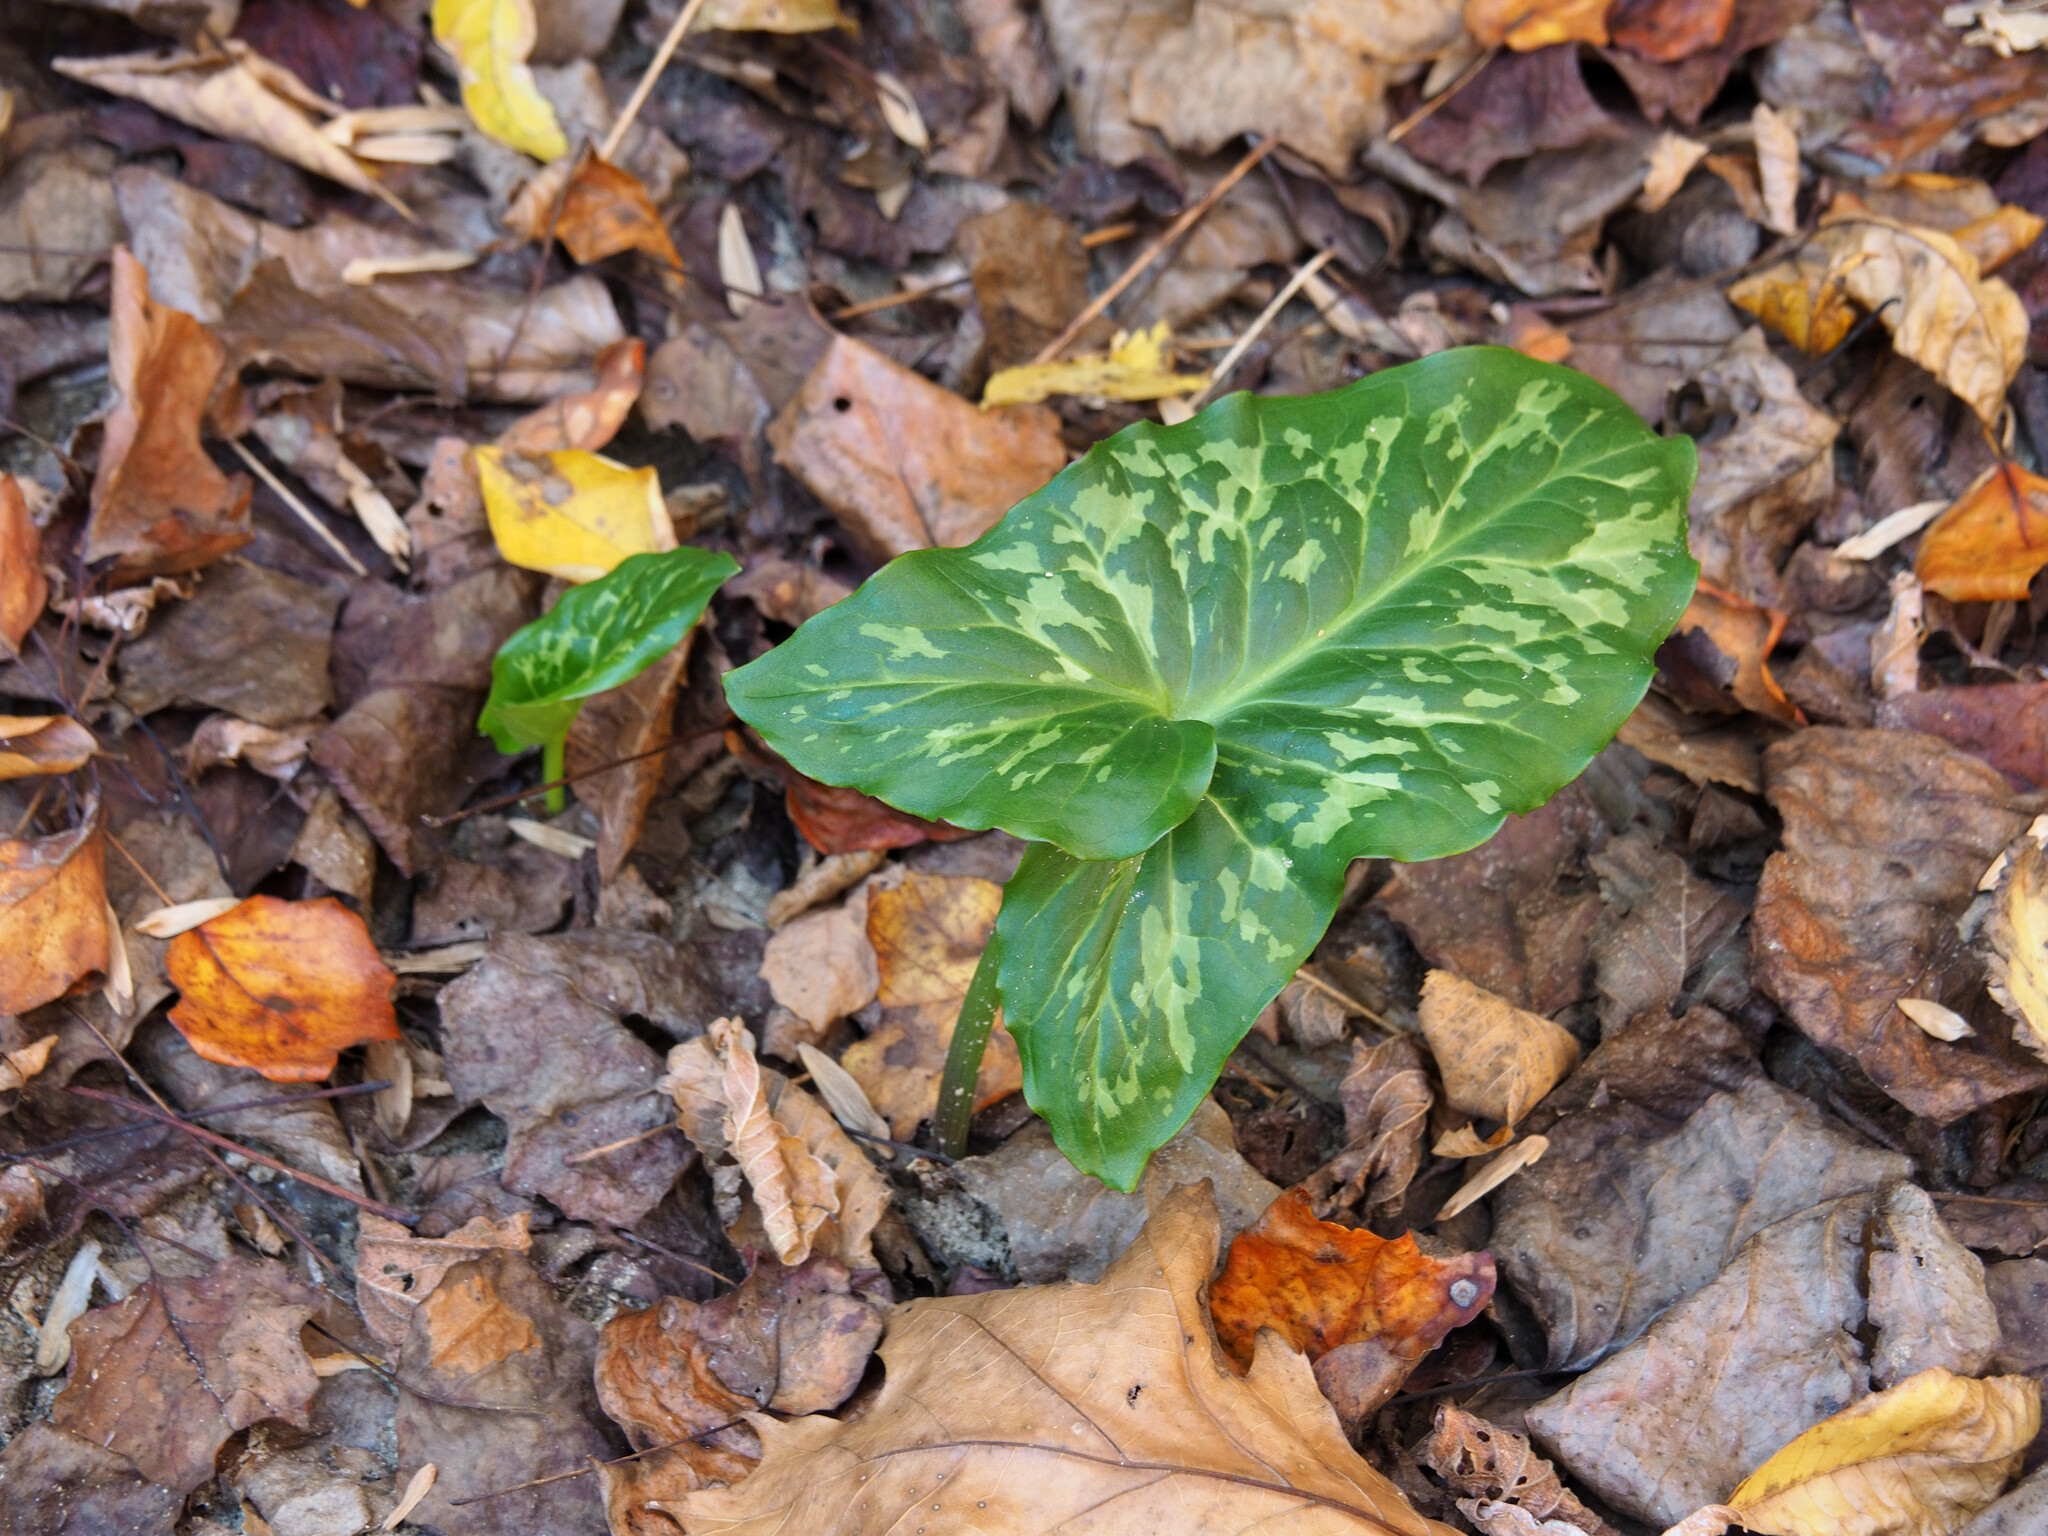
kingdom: Plantae
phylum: Tracheophyta
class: Liliopsida
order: Alismatales
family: Araceae
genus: Arum
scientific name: Arum italicum
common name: Italian lords-and-ladies
